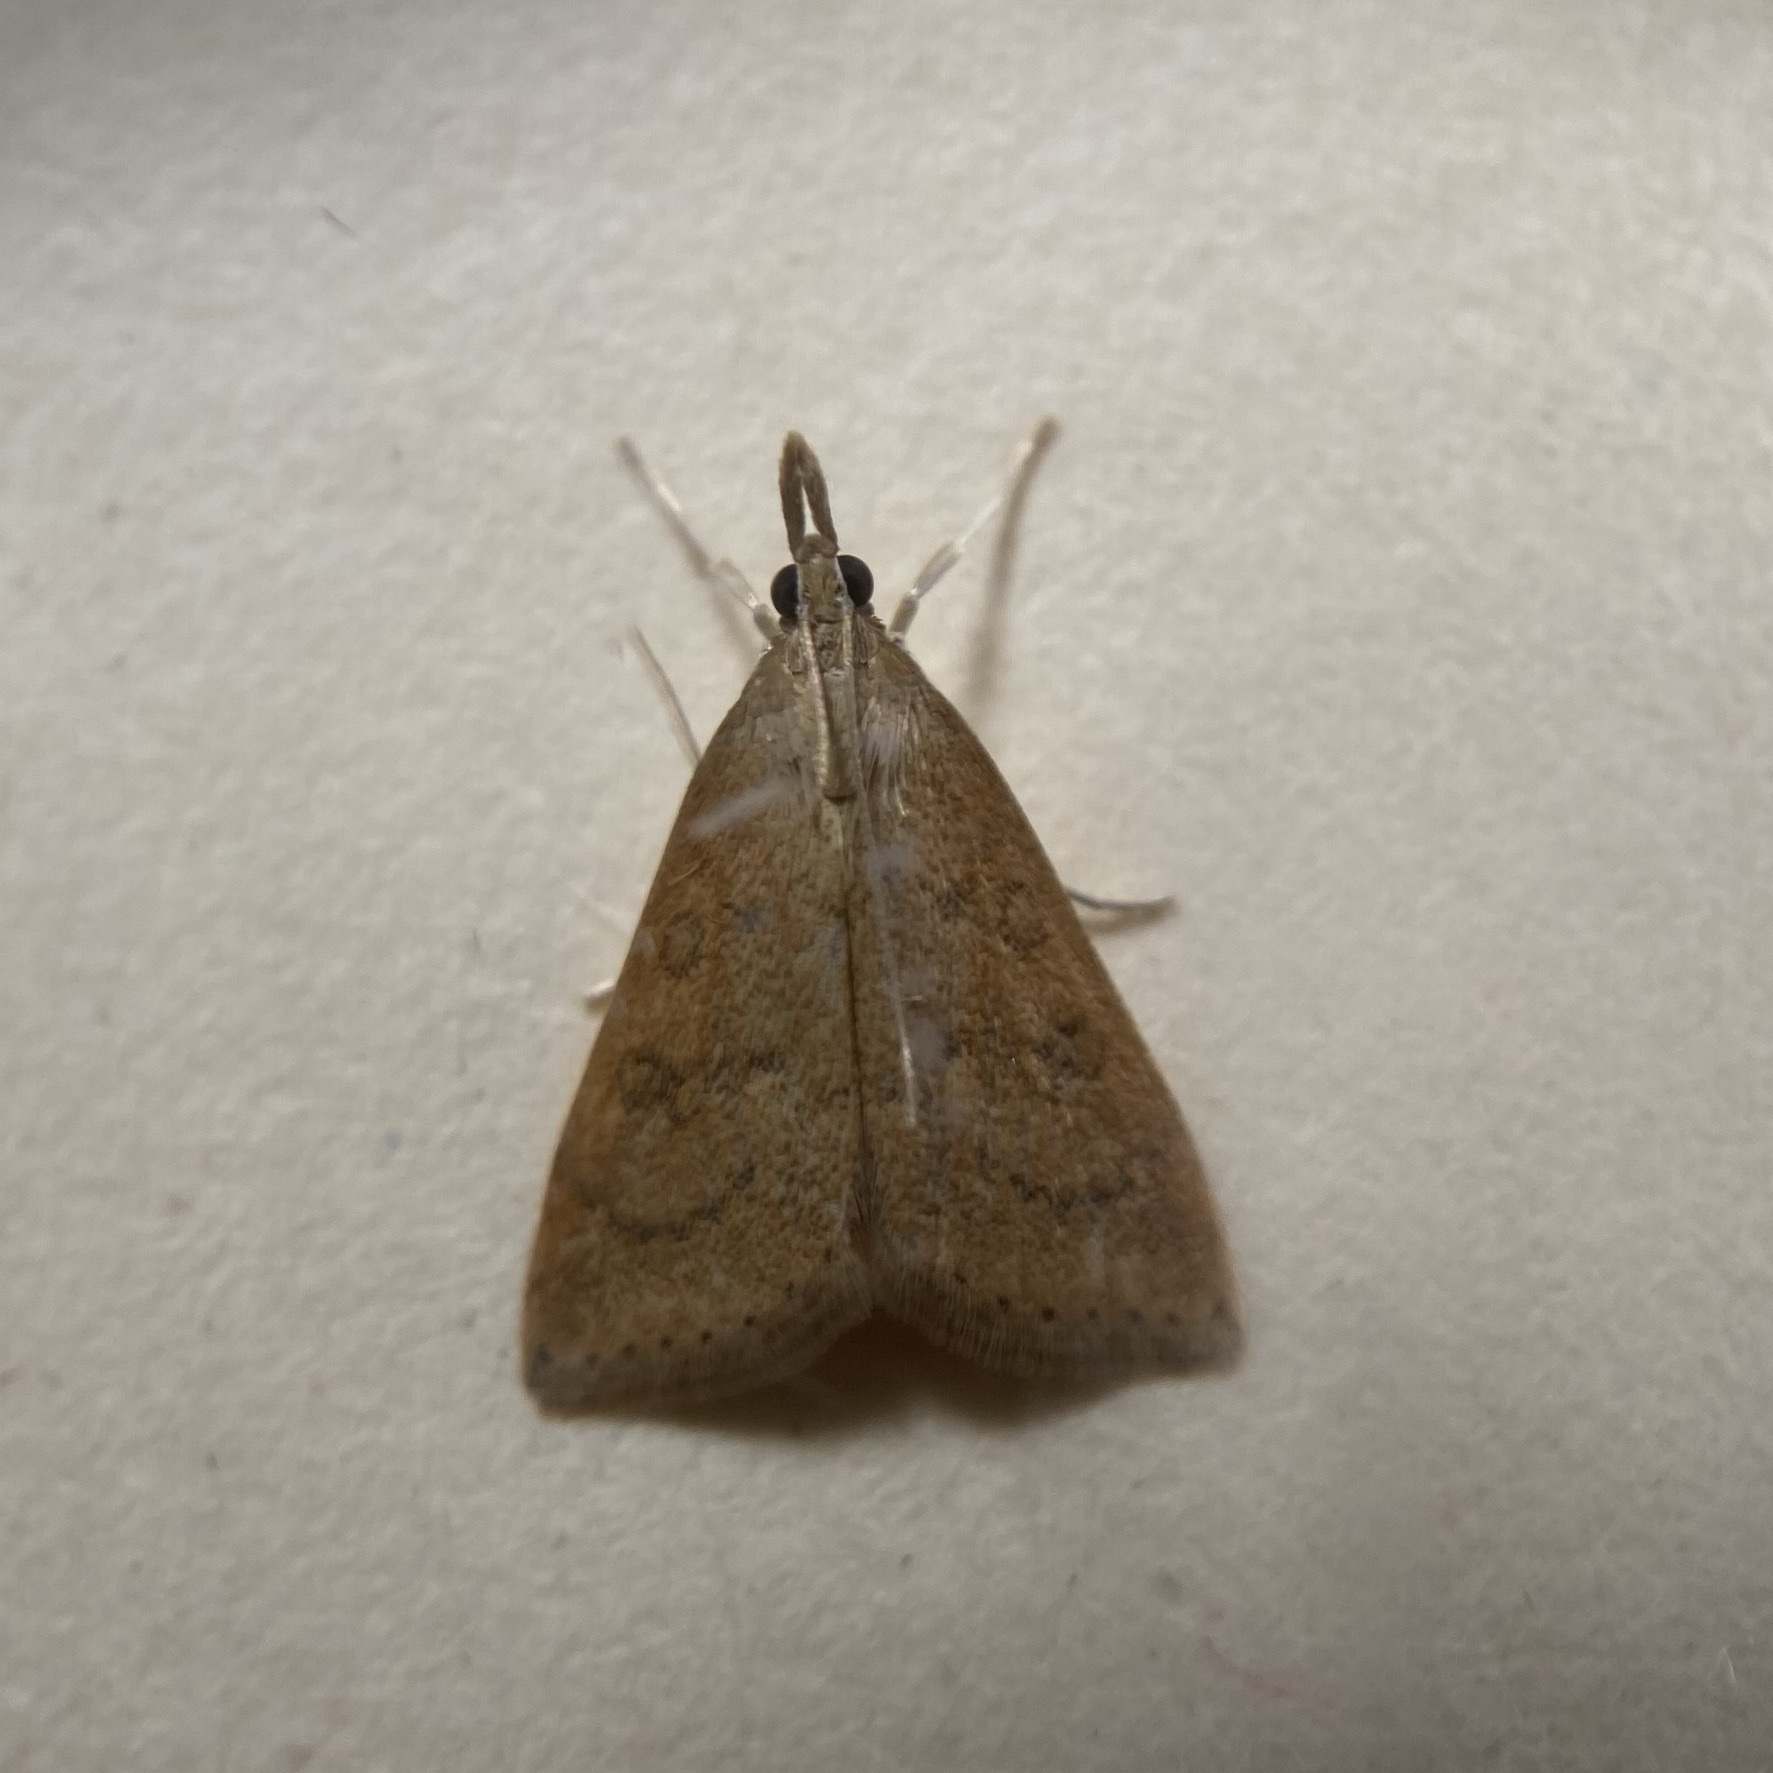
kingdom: Animalia
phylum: Arthropoda
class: Insecta
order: Lepidoptera
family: Crambidae
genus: Udea
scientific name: Udea rubigalis
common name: Celery leaftier moth
